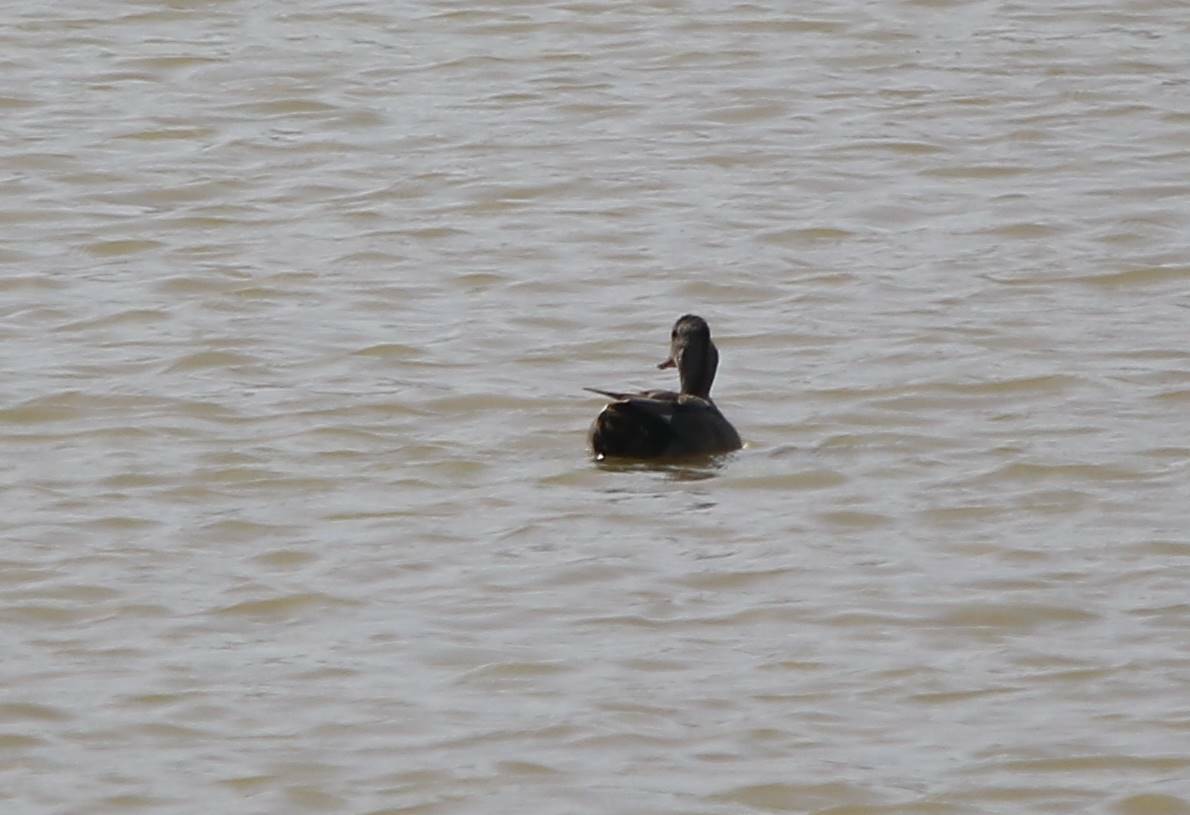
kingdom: Animalia
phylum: Chordata
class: Aves
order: Anseriformes
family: Anatidae
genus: Mareca
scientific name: Mareca strepera
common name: Gadwall
